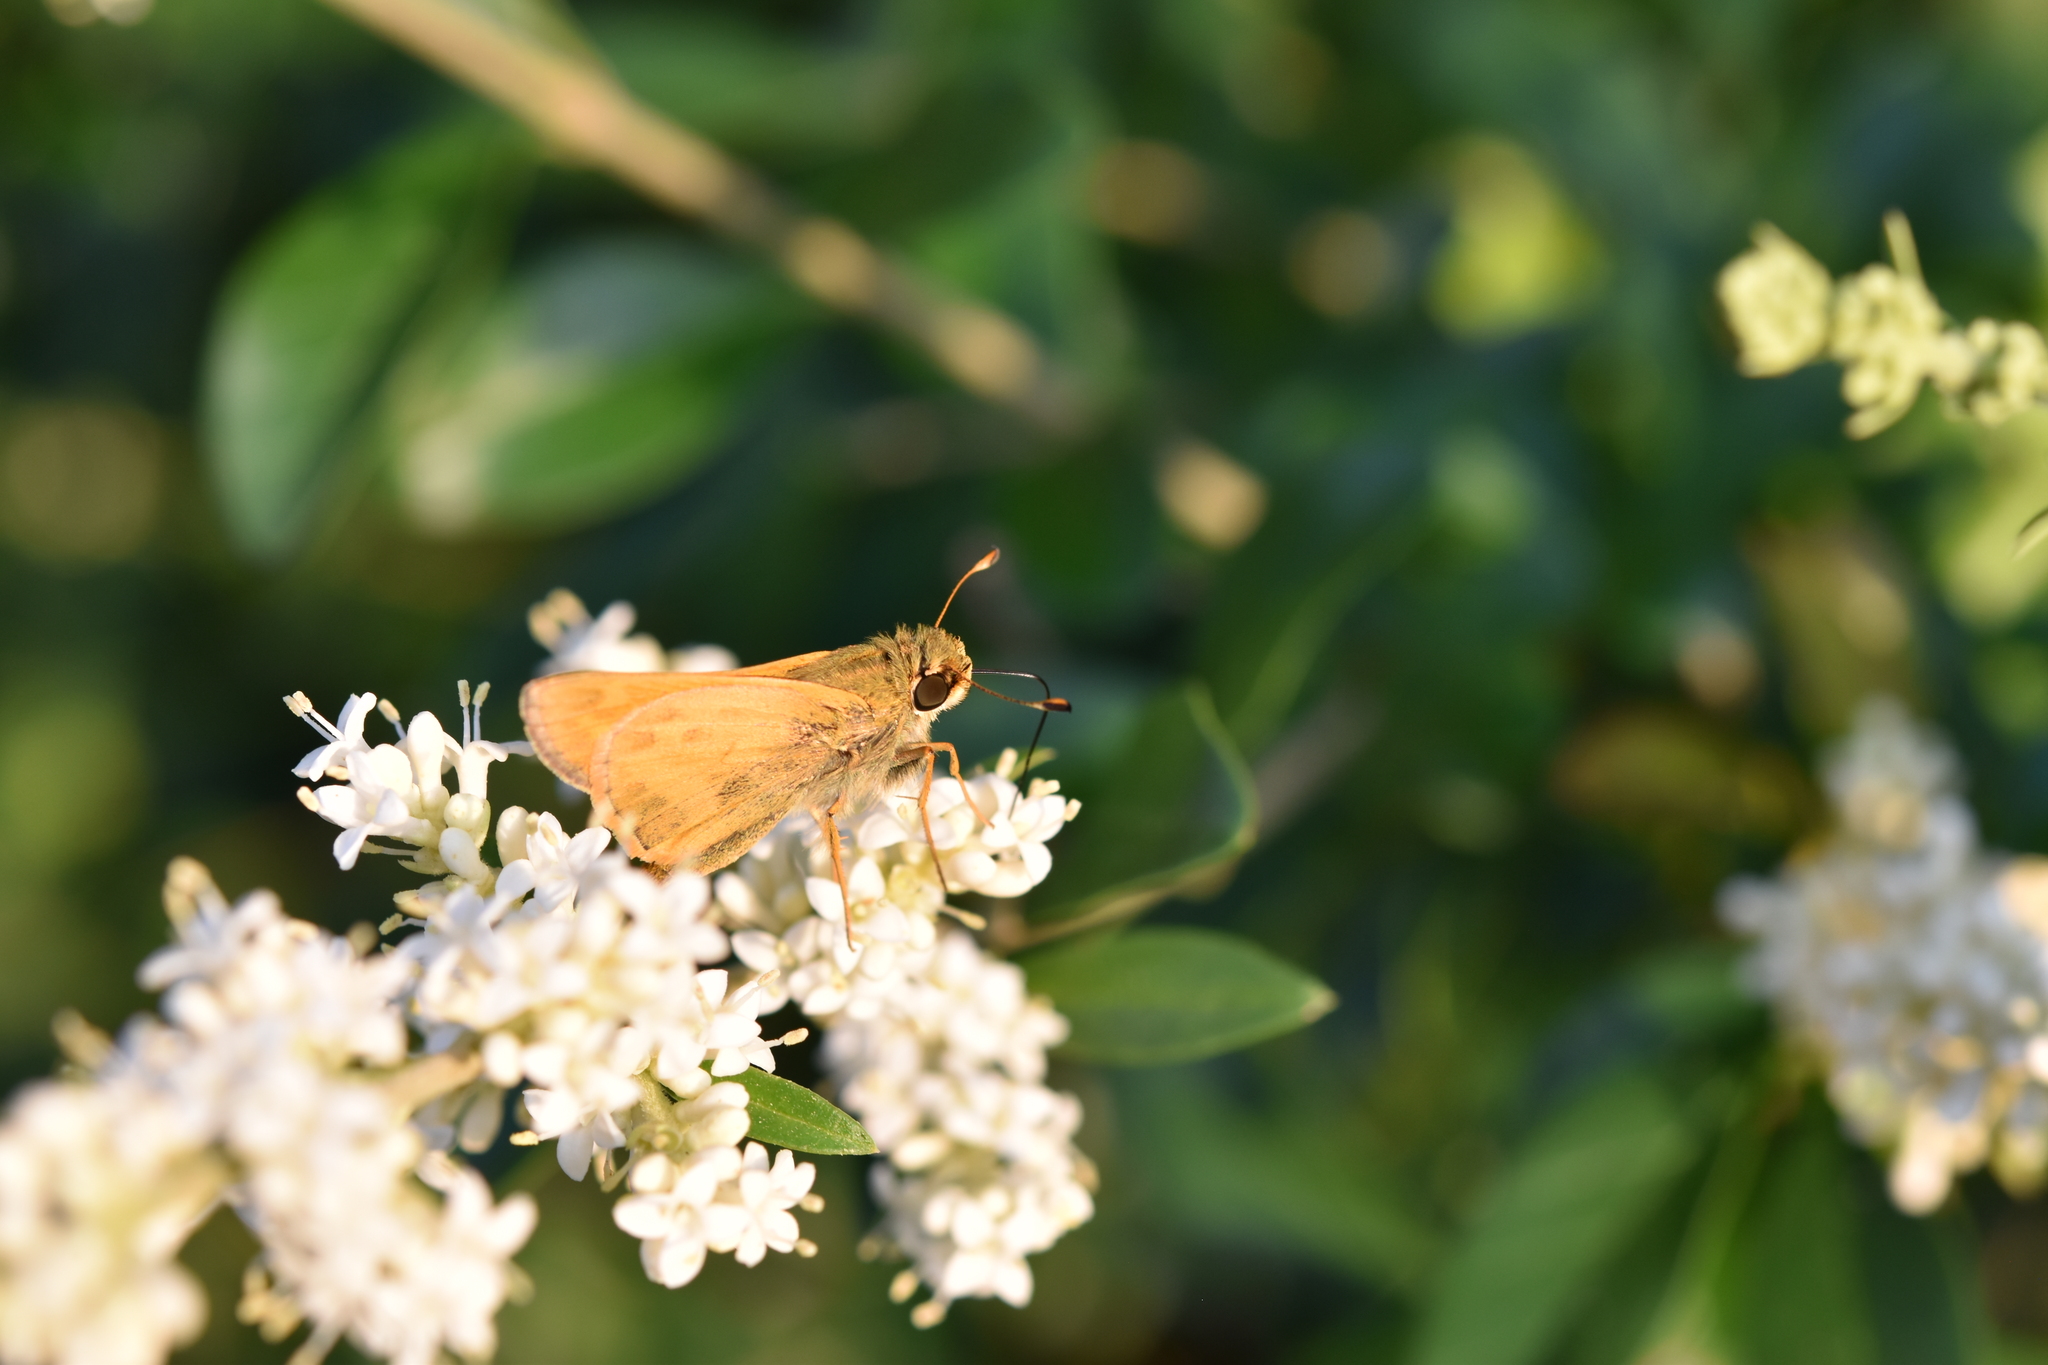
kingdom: Animalia
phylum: Arthropoda
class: Insecta
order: Lepidoptera
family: Hesperiidae
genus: Atalopedes
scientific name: Atalopedes
